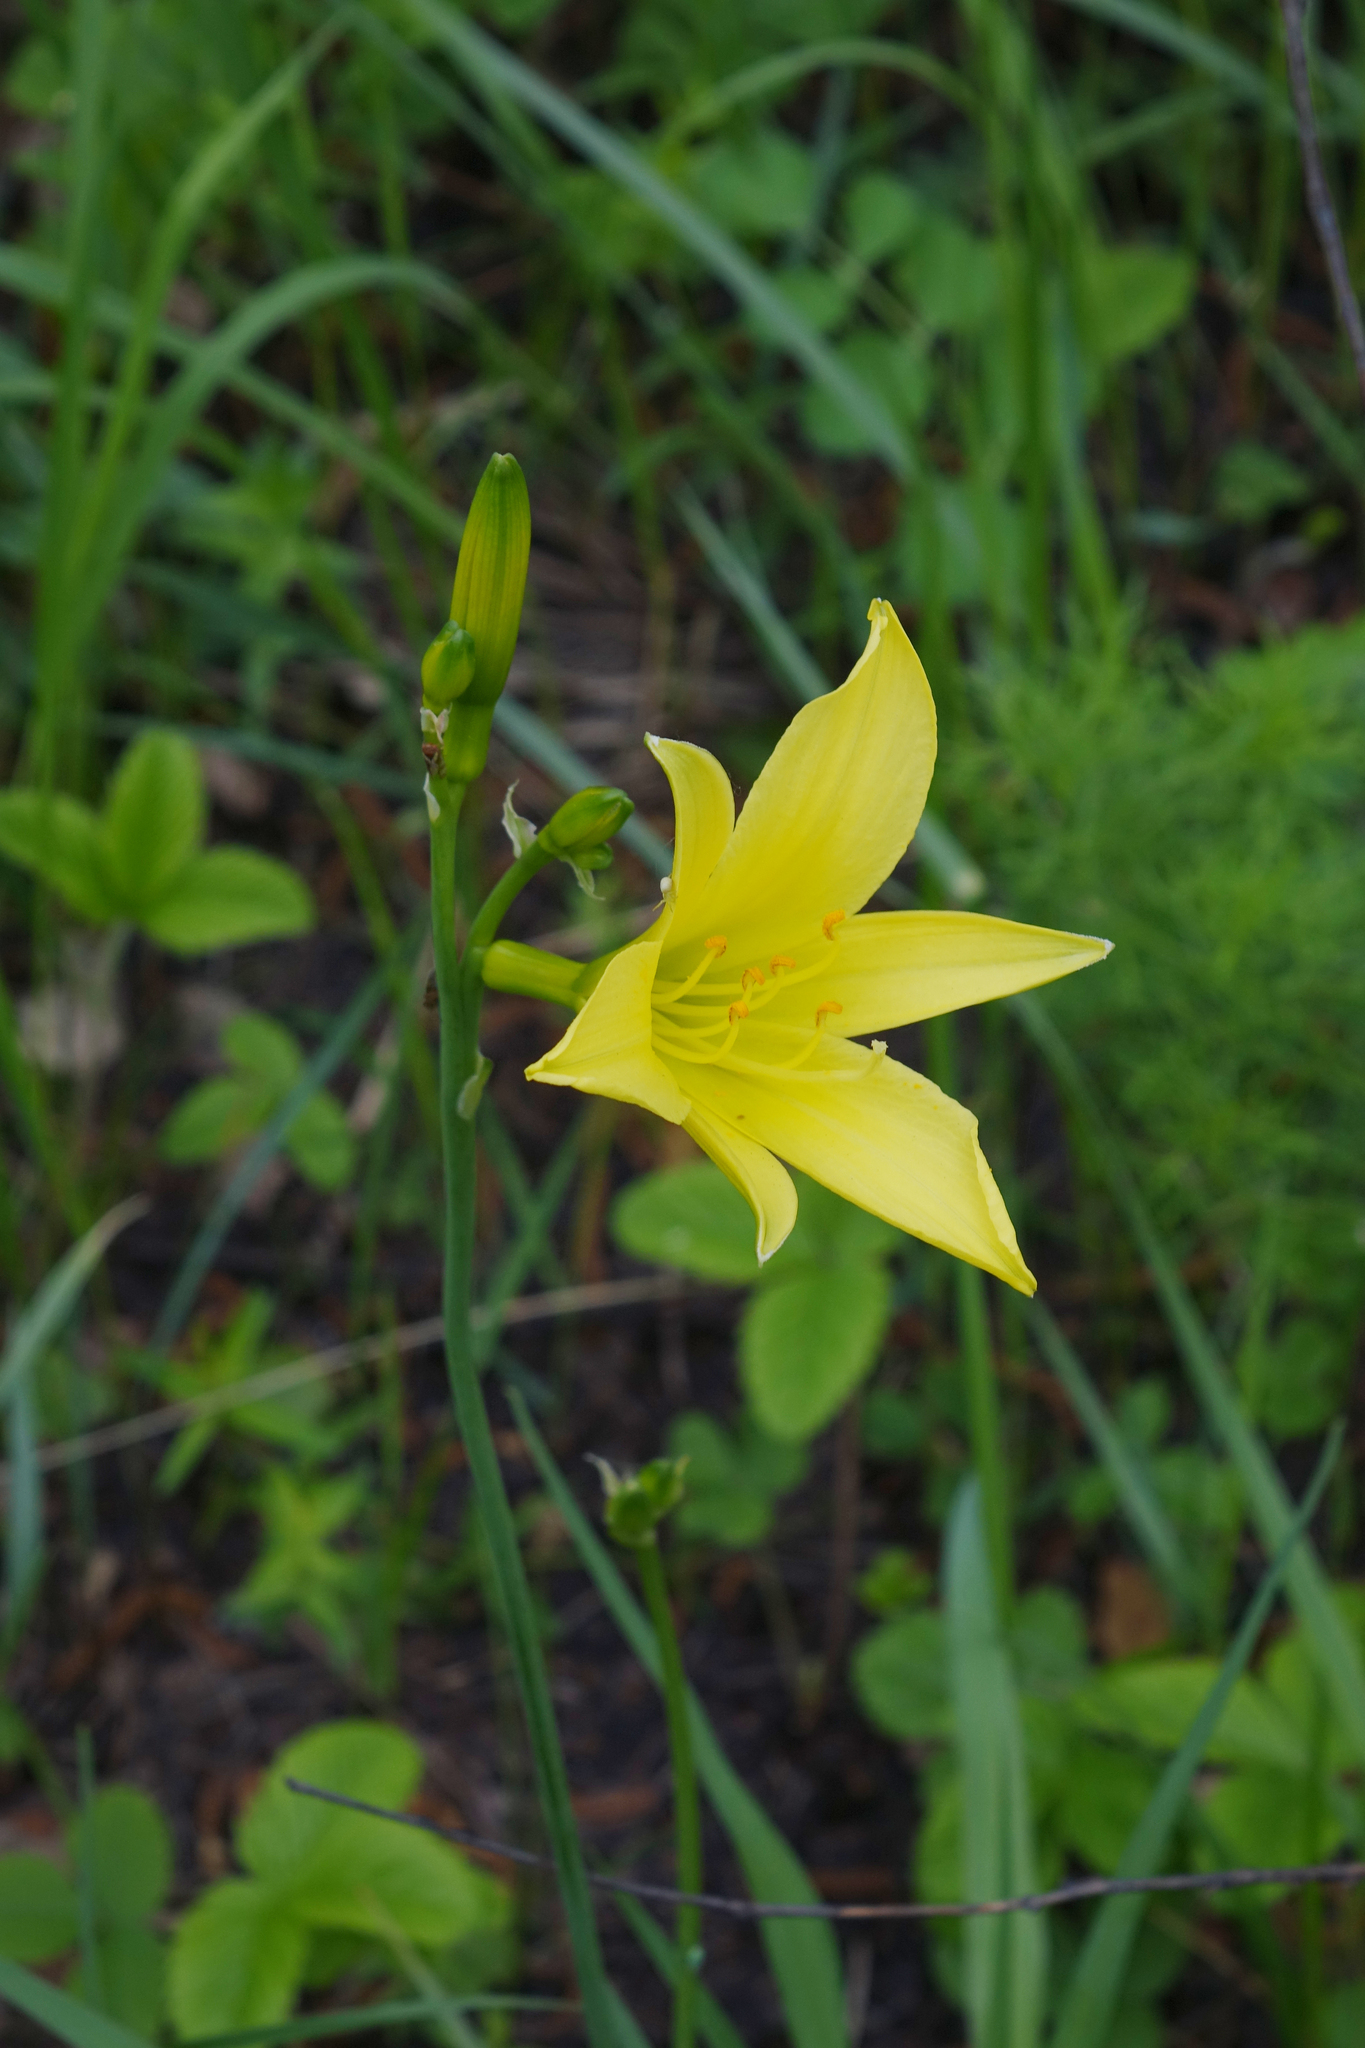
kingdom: Plantae
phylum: Tracheophyta
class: Liliopsida
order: Asparagales
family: Asphodelaceae
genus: Hemerocallis
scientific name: Hemerocallis minor
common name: Small daylily
